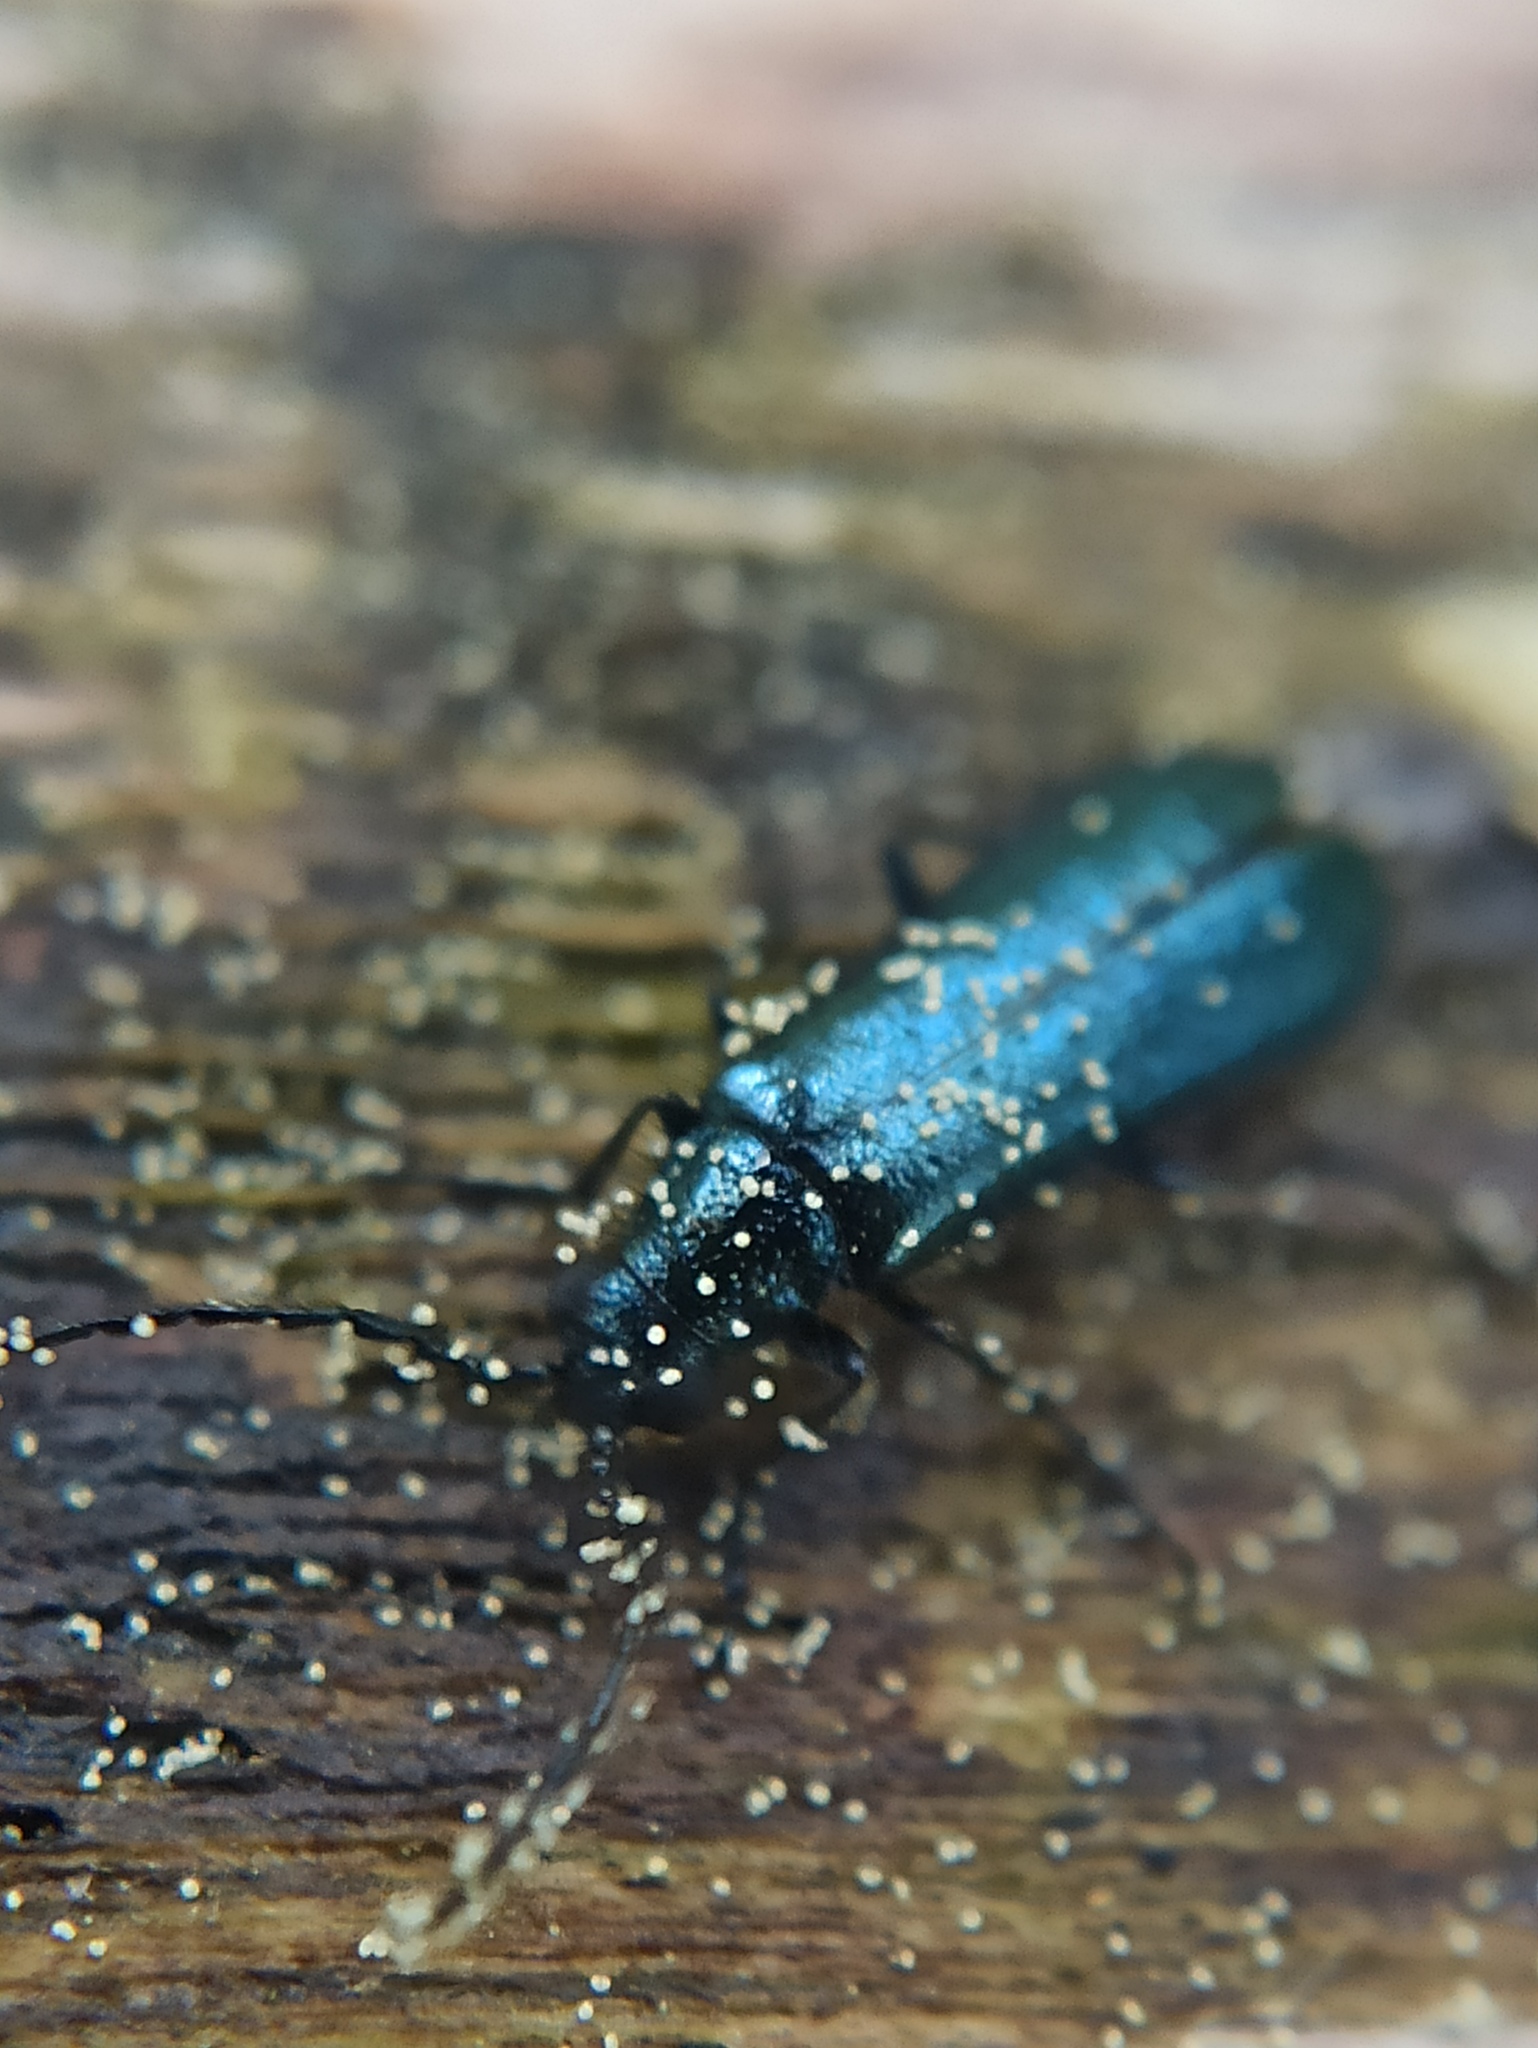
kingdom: Animalia
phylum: Arthropoda
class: Insecta
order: Coleoptera
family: Melyridae
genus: Dasytes
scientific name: Dasytes caeruleus
